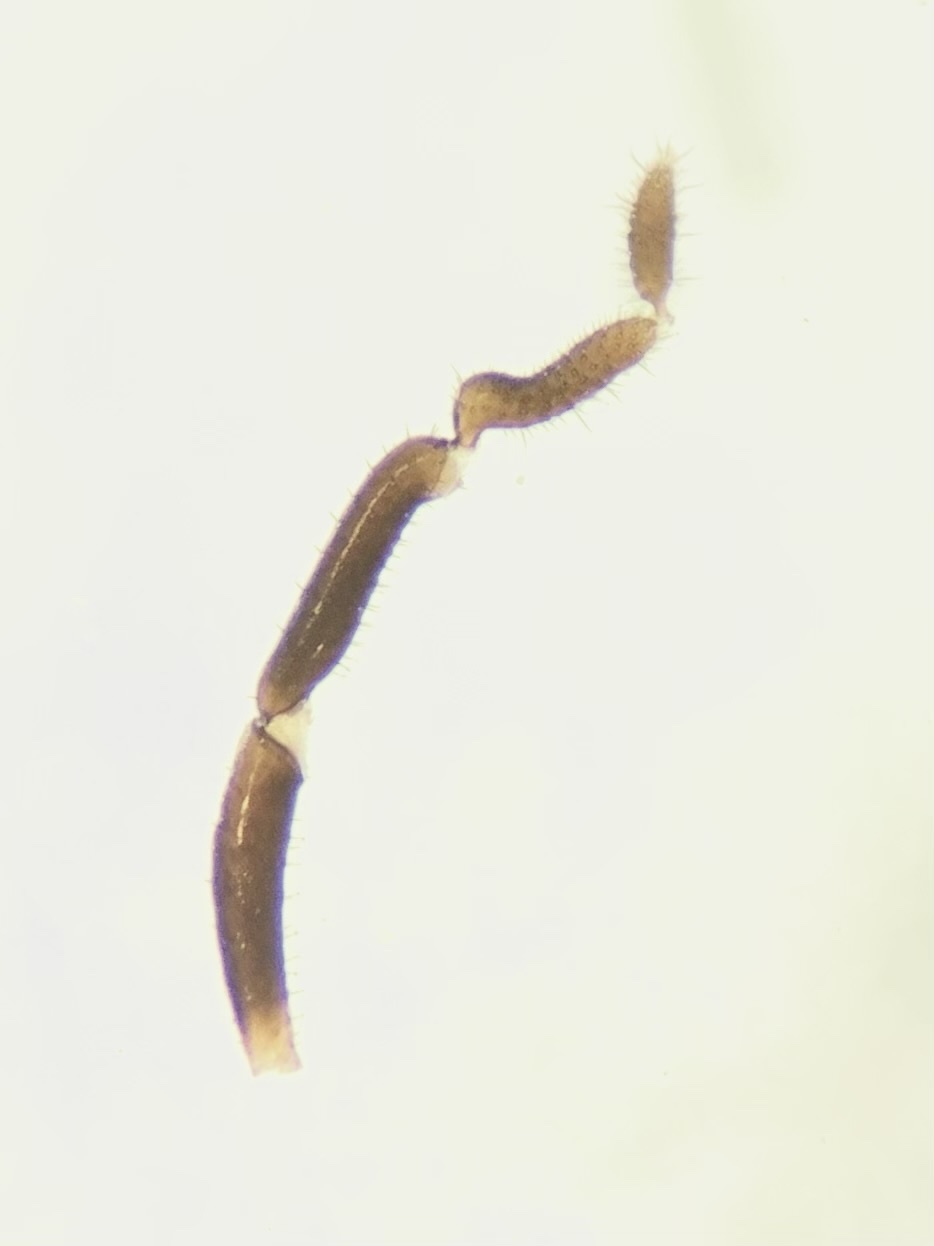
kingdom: Animalia
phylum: Arthropoda
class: Arachnida
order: Opiliones
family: Nemastomatidae
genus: Nemastoma
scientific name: Nemastoma bimaculatum
